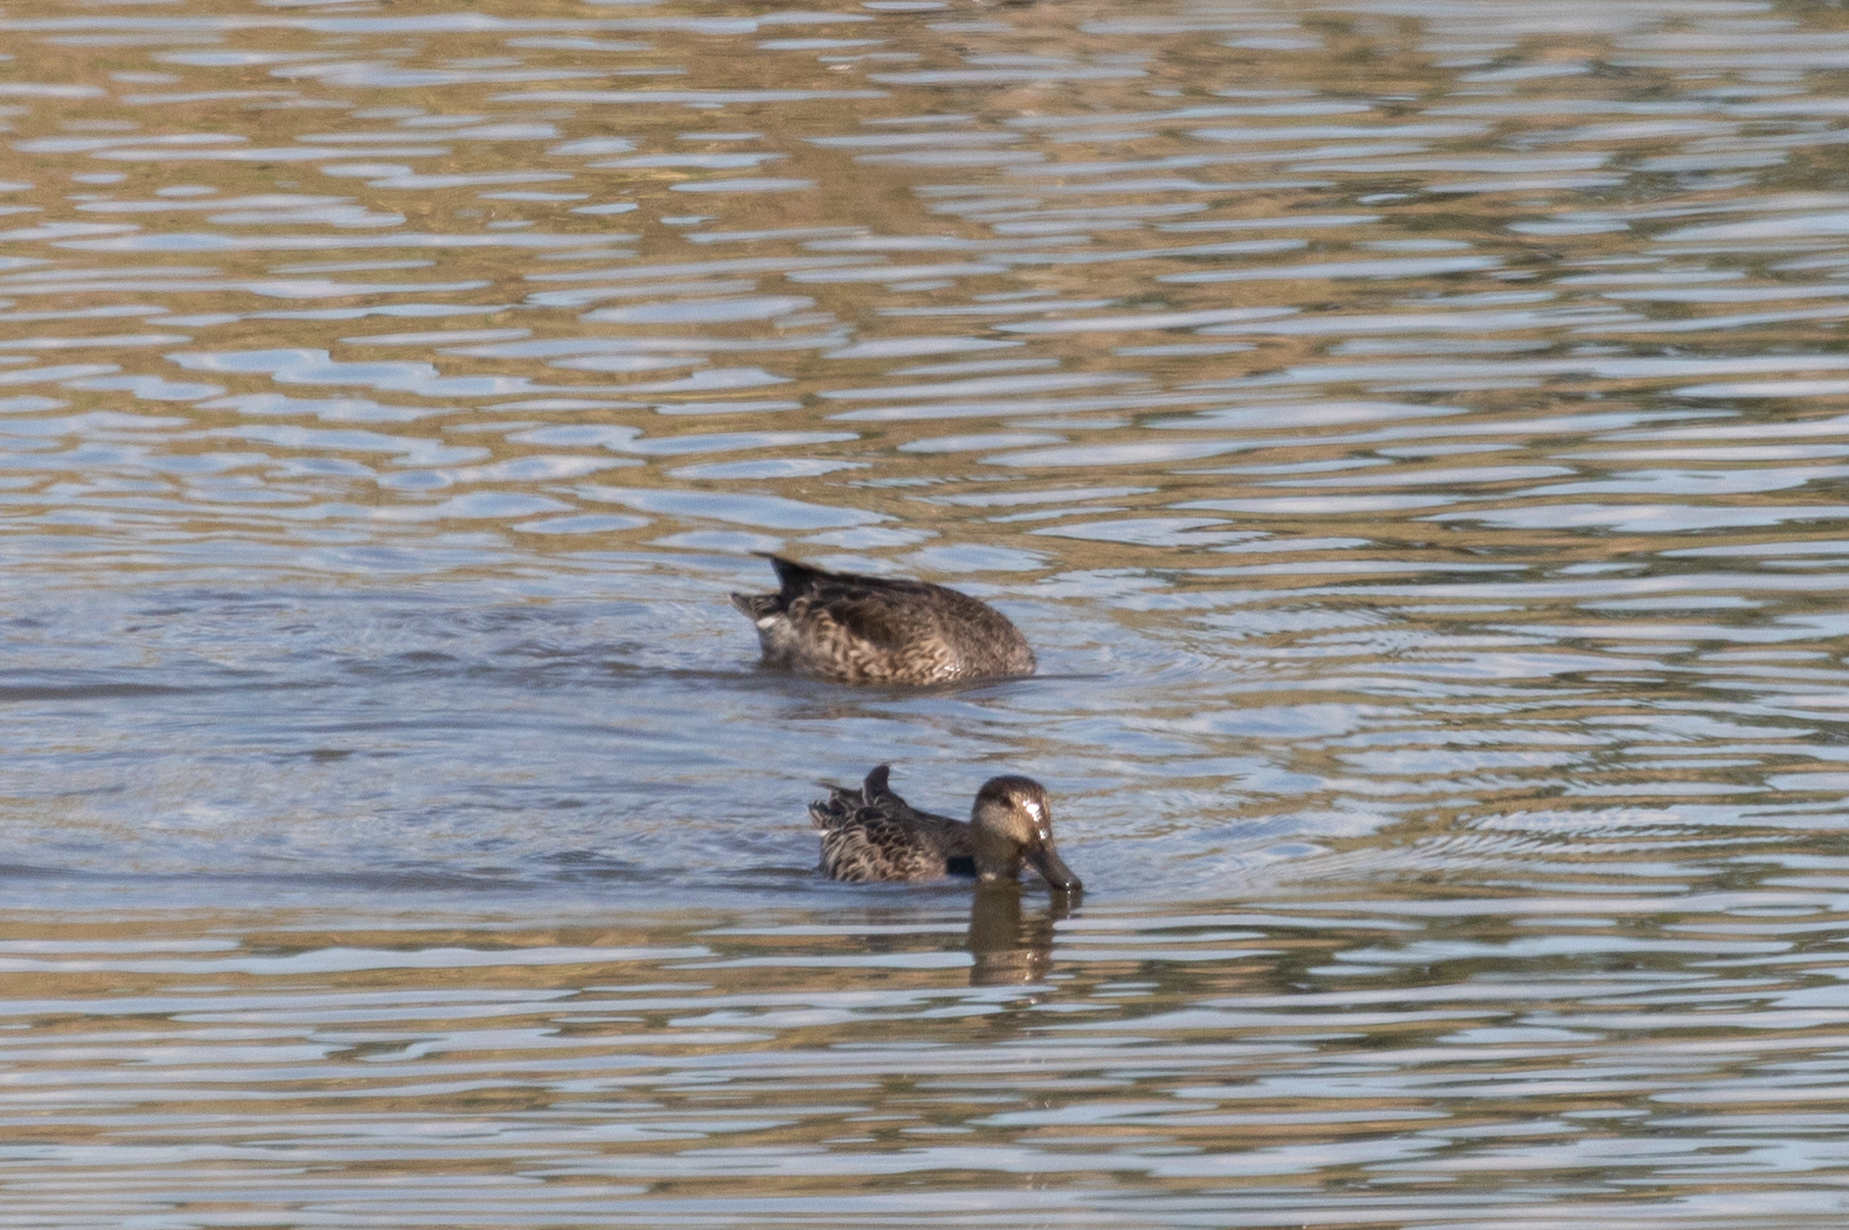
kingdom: Animalia
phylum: Chordata
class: Aves
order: Anseriformes
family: Anatidae
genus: Anas
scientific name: Anas crecca
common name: Eurasian teal
